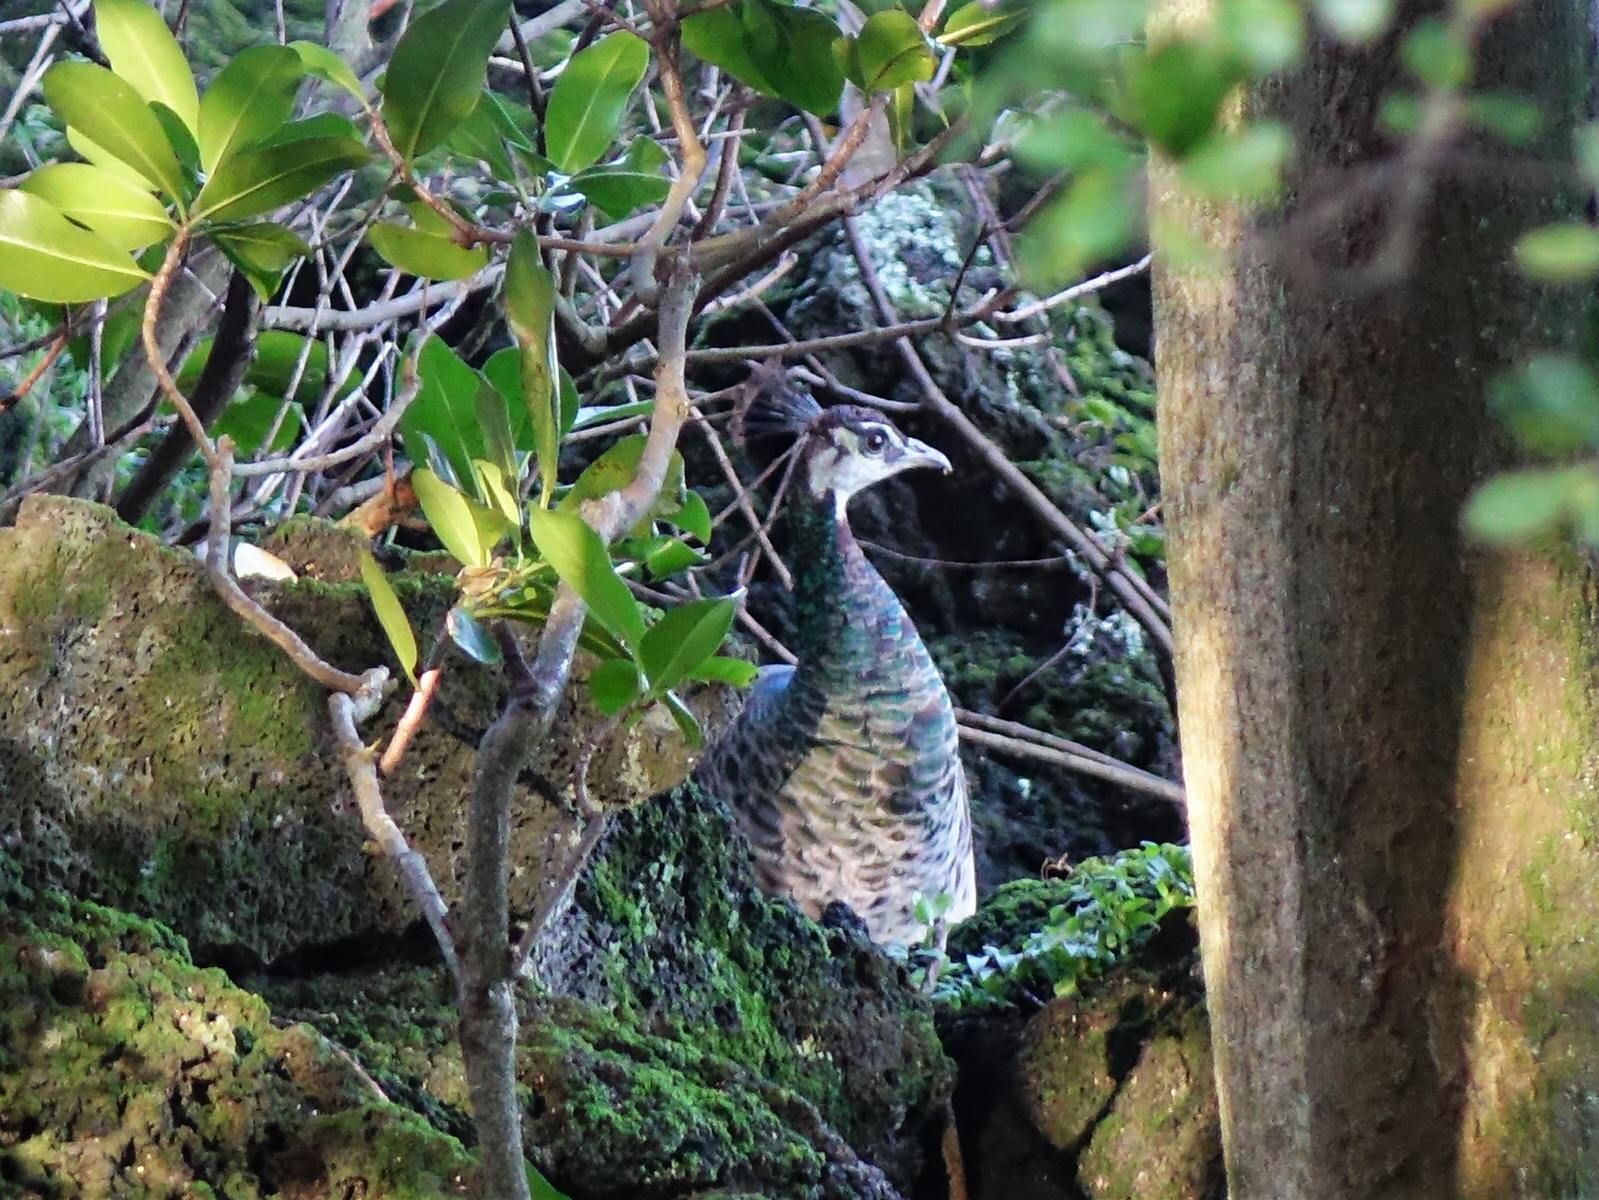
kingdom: Animalia
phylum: Chordata
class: Aves
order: Galliformes
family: Phasianidae
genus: Pavo
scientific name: Pavo cristatus
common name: Indian peafowl
